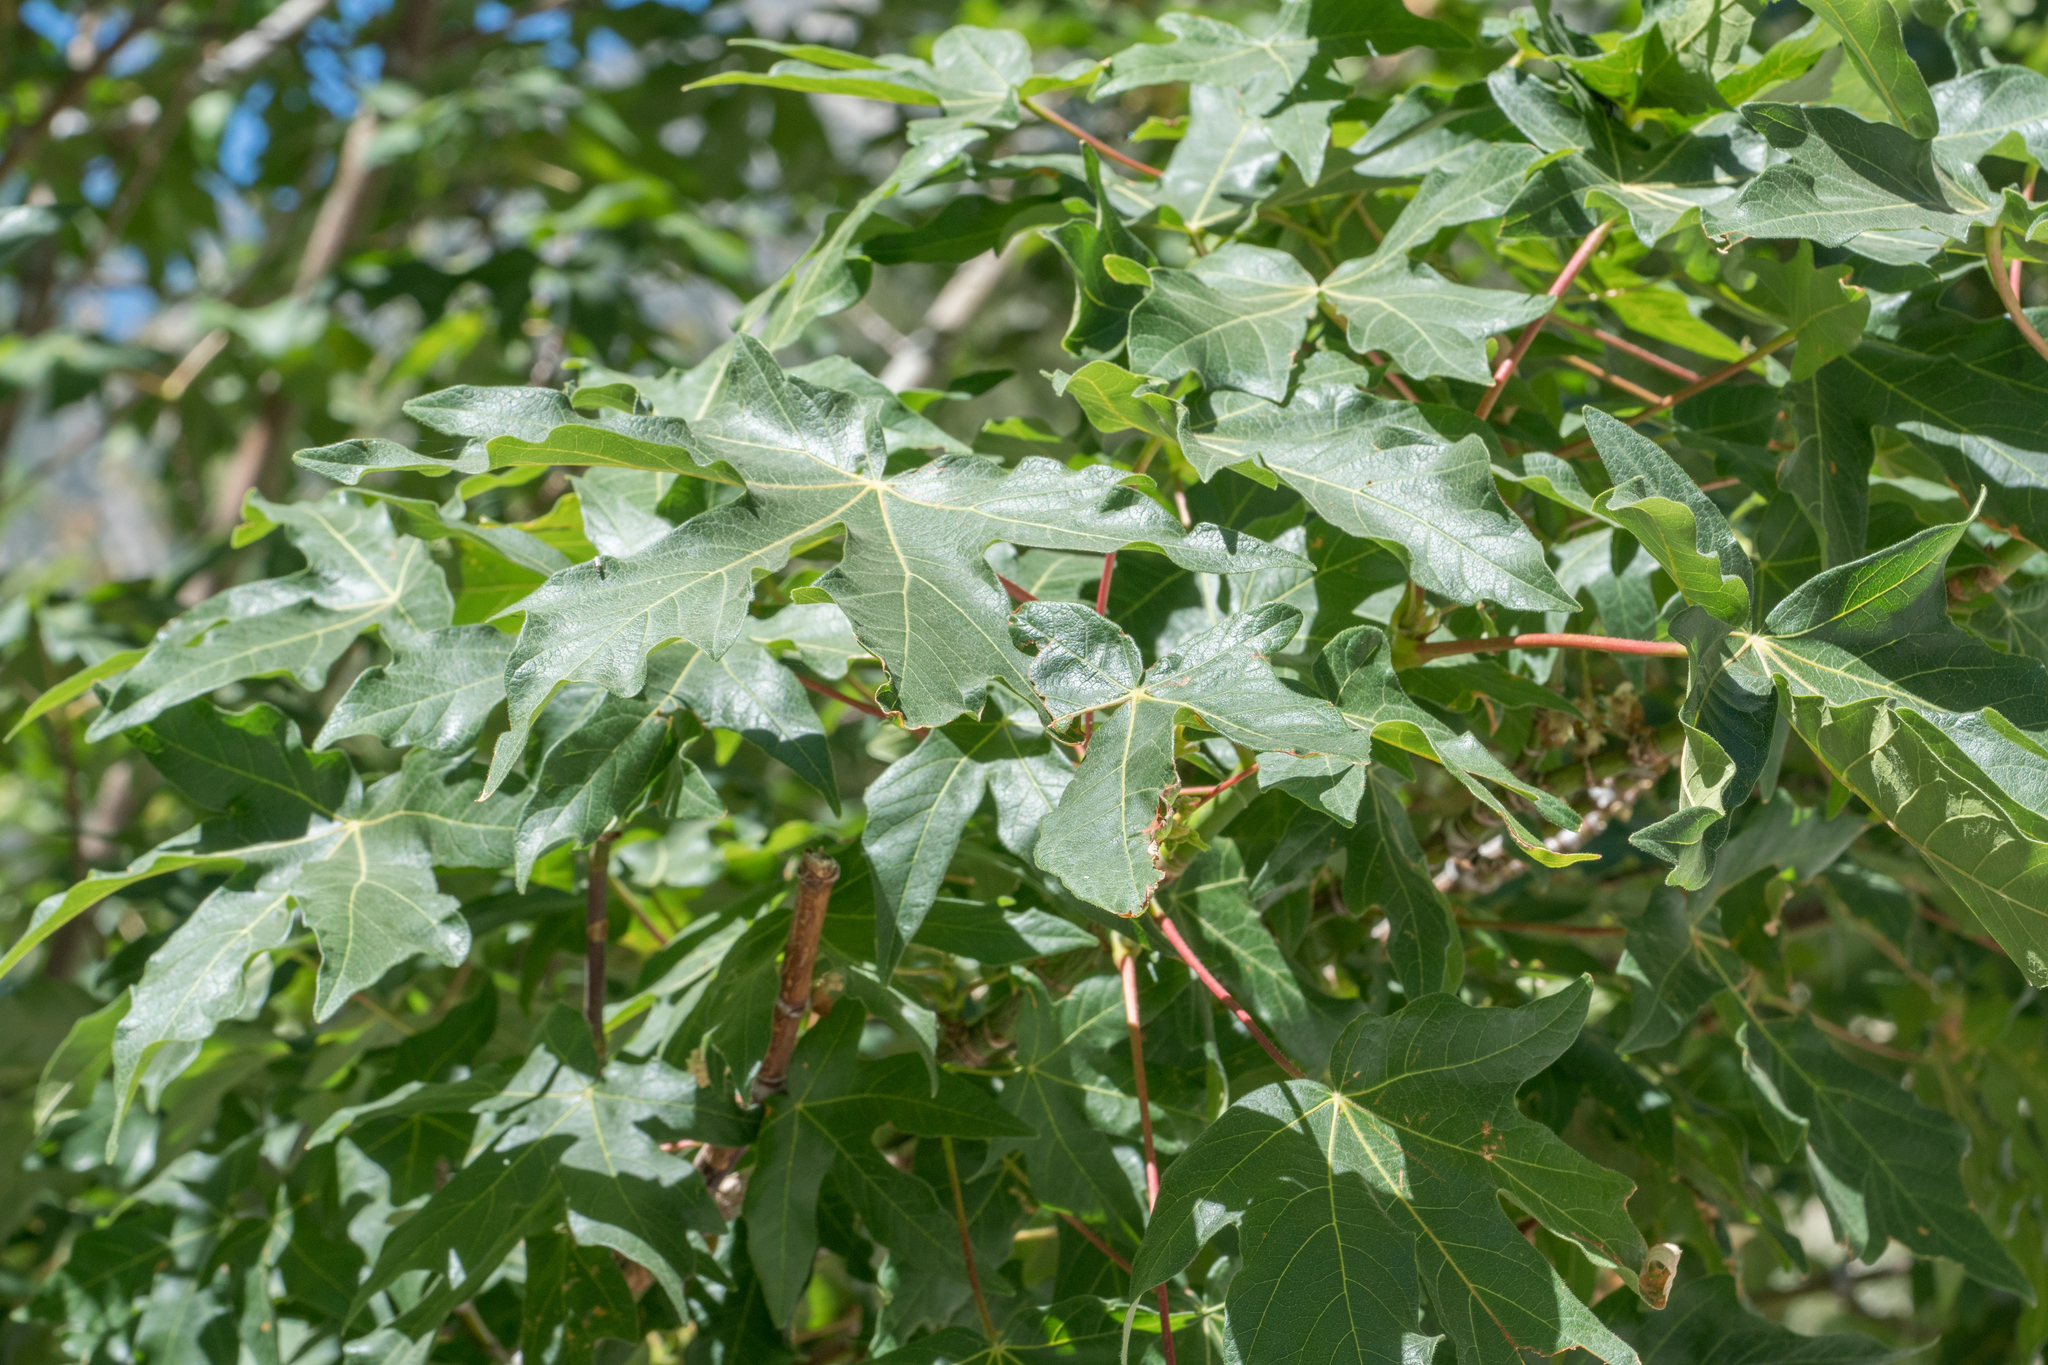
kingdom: Plantae
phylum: Tracheophyta
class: Magnoliopsida
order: Sapindales
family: Sapindaceae
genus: Acer
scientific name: Acer macrophyllum
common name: Oregon maple
